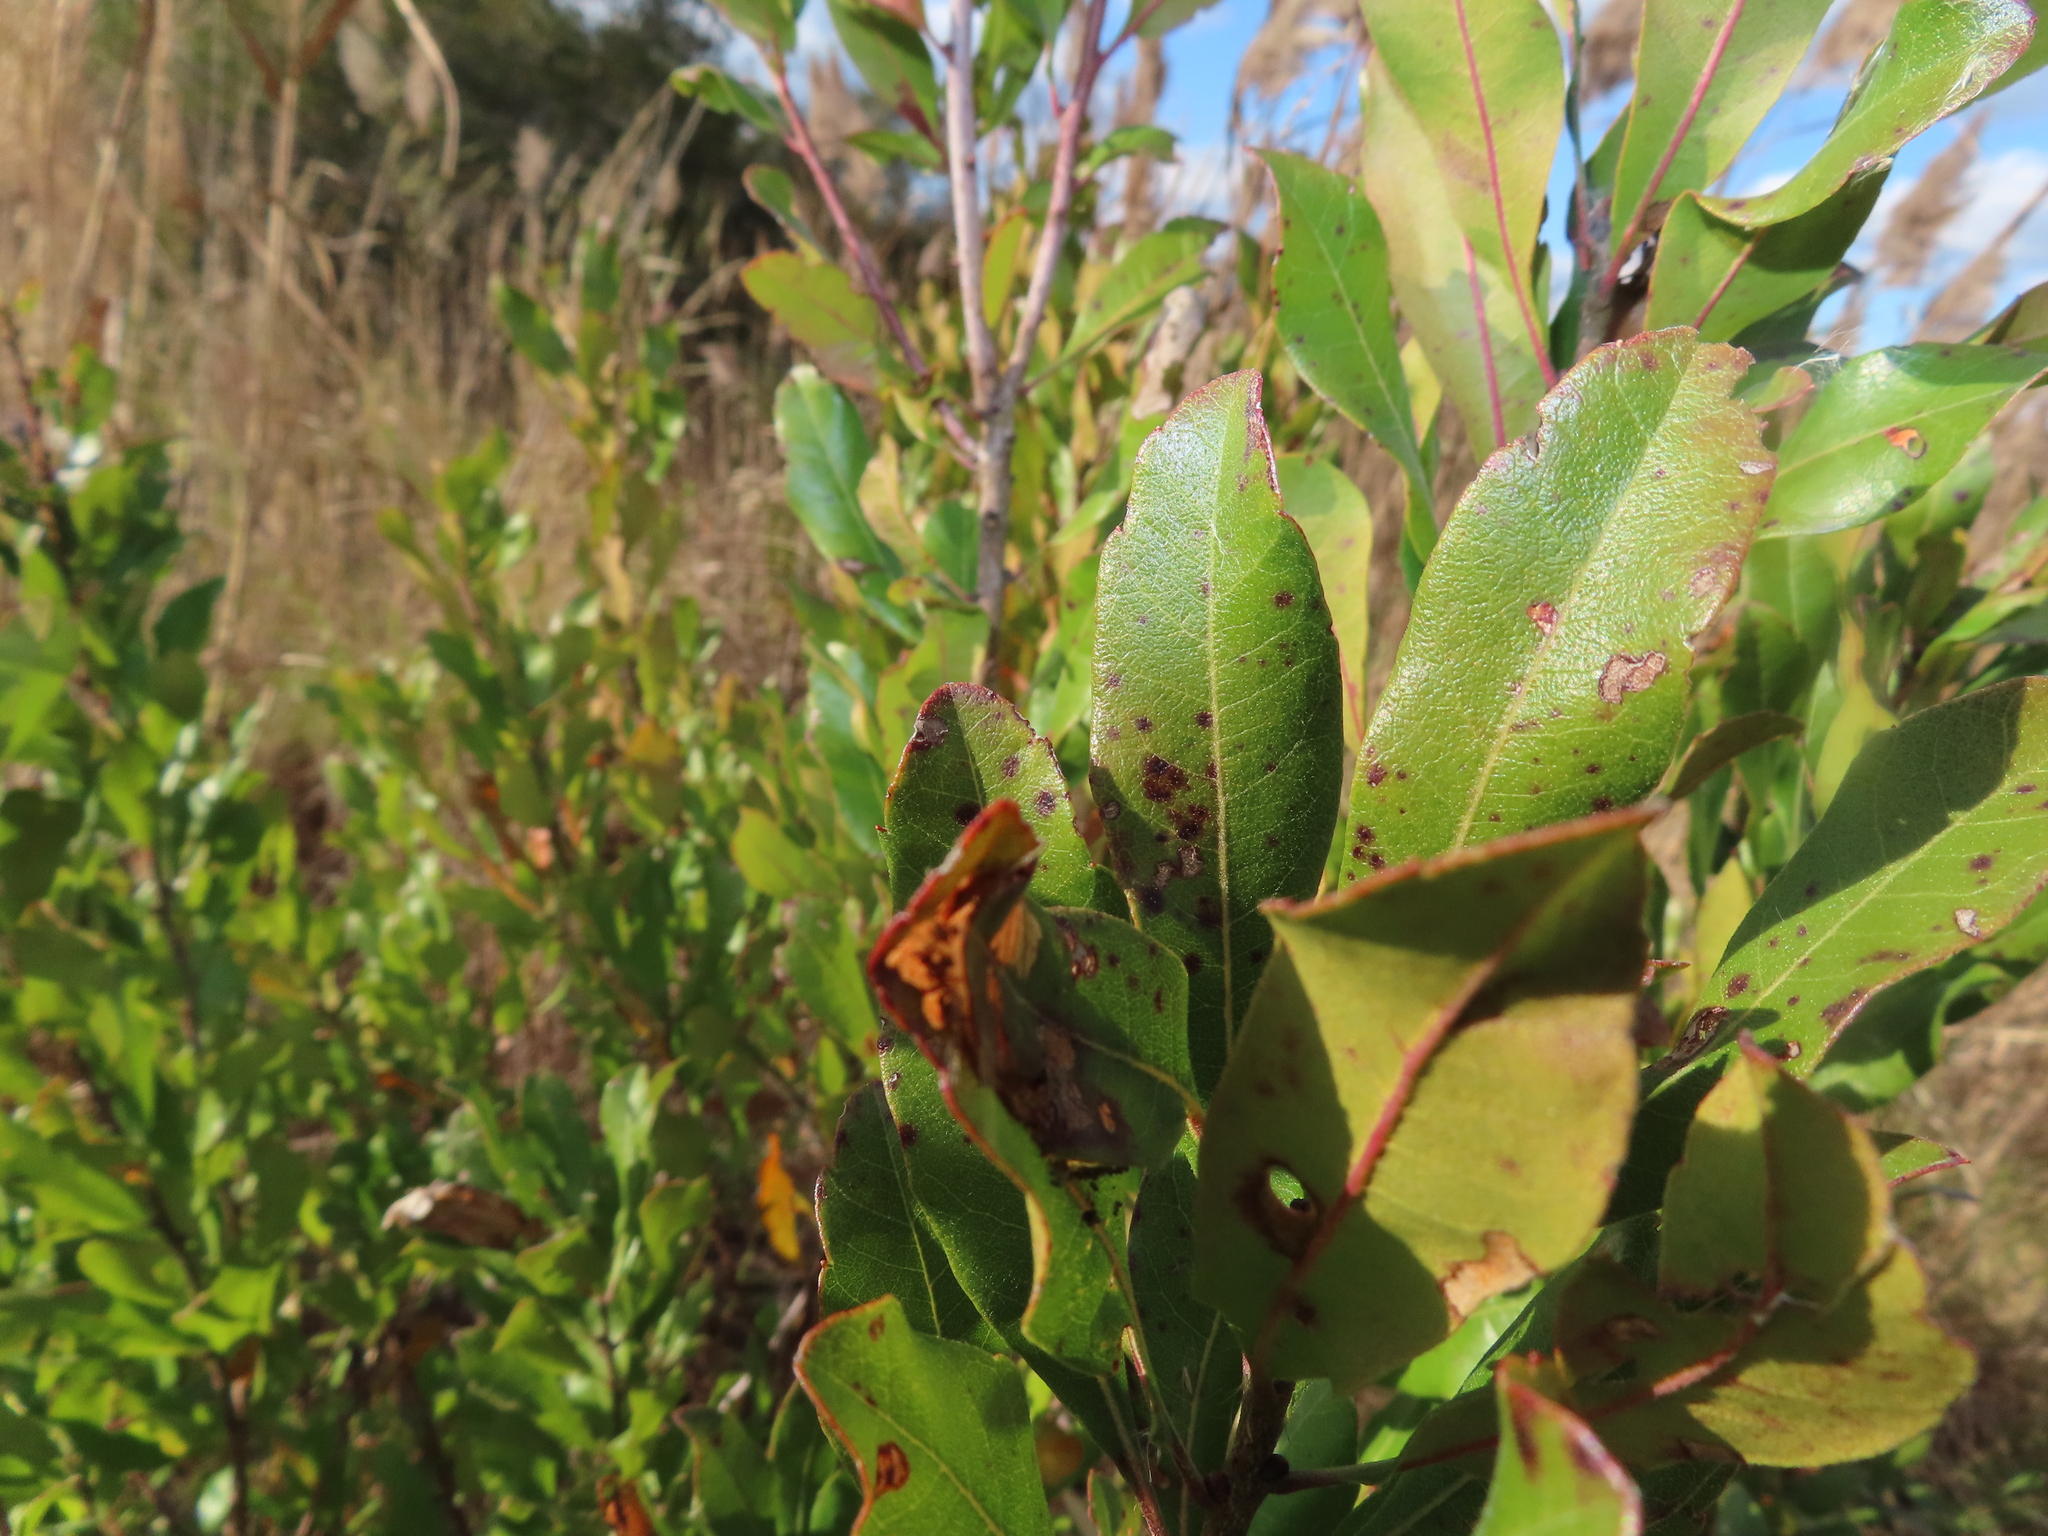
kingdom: Plantae
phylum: Tracheophyta
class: Magnoliopsida
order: Fagales
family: Myricaceae
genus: Morella
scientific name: Morella cerifera
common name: Wax myrtle
